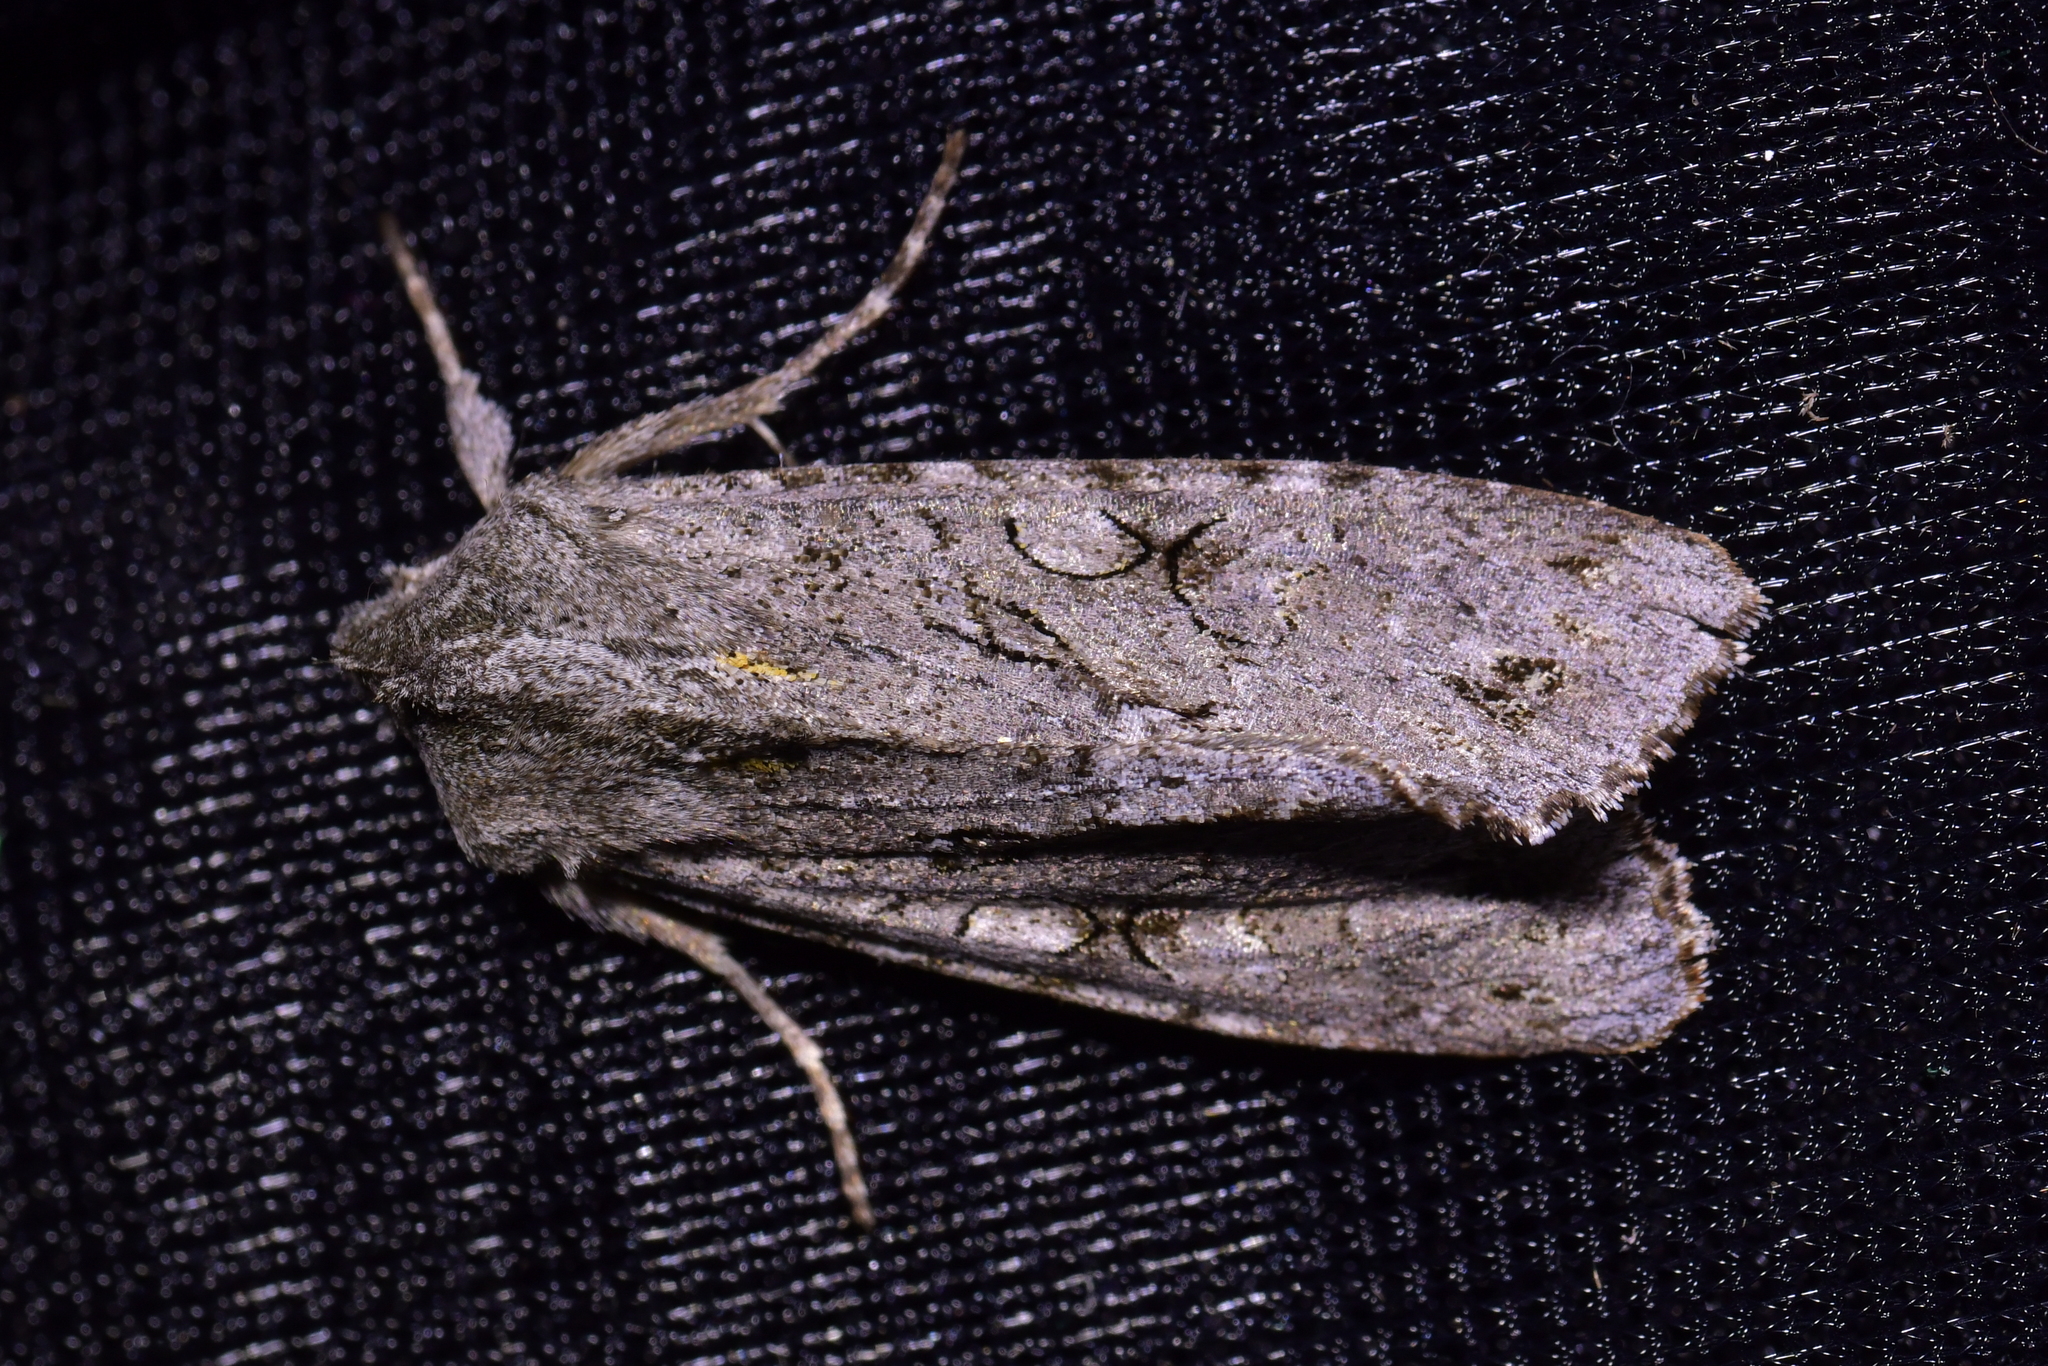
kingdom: Animalia
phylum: Arthropoda
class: Insecta
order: Lepidoptera
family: Noctuidae
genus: Ichneutica
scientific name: Ichneutica
